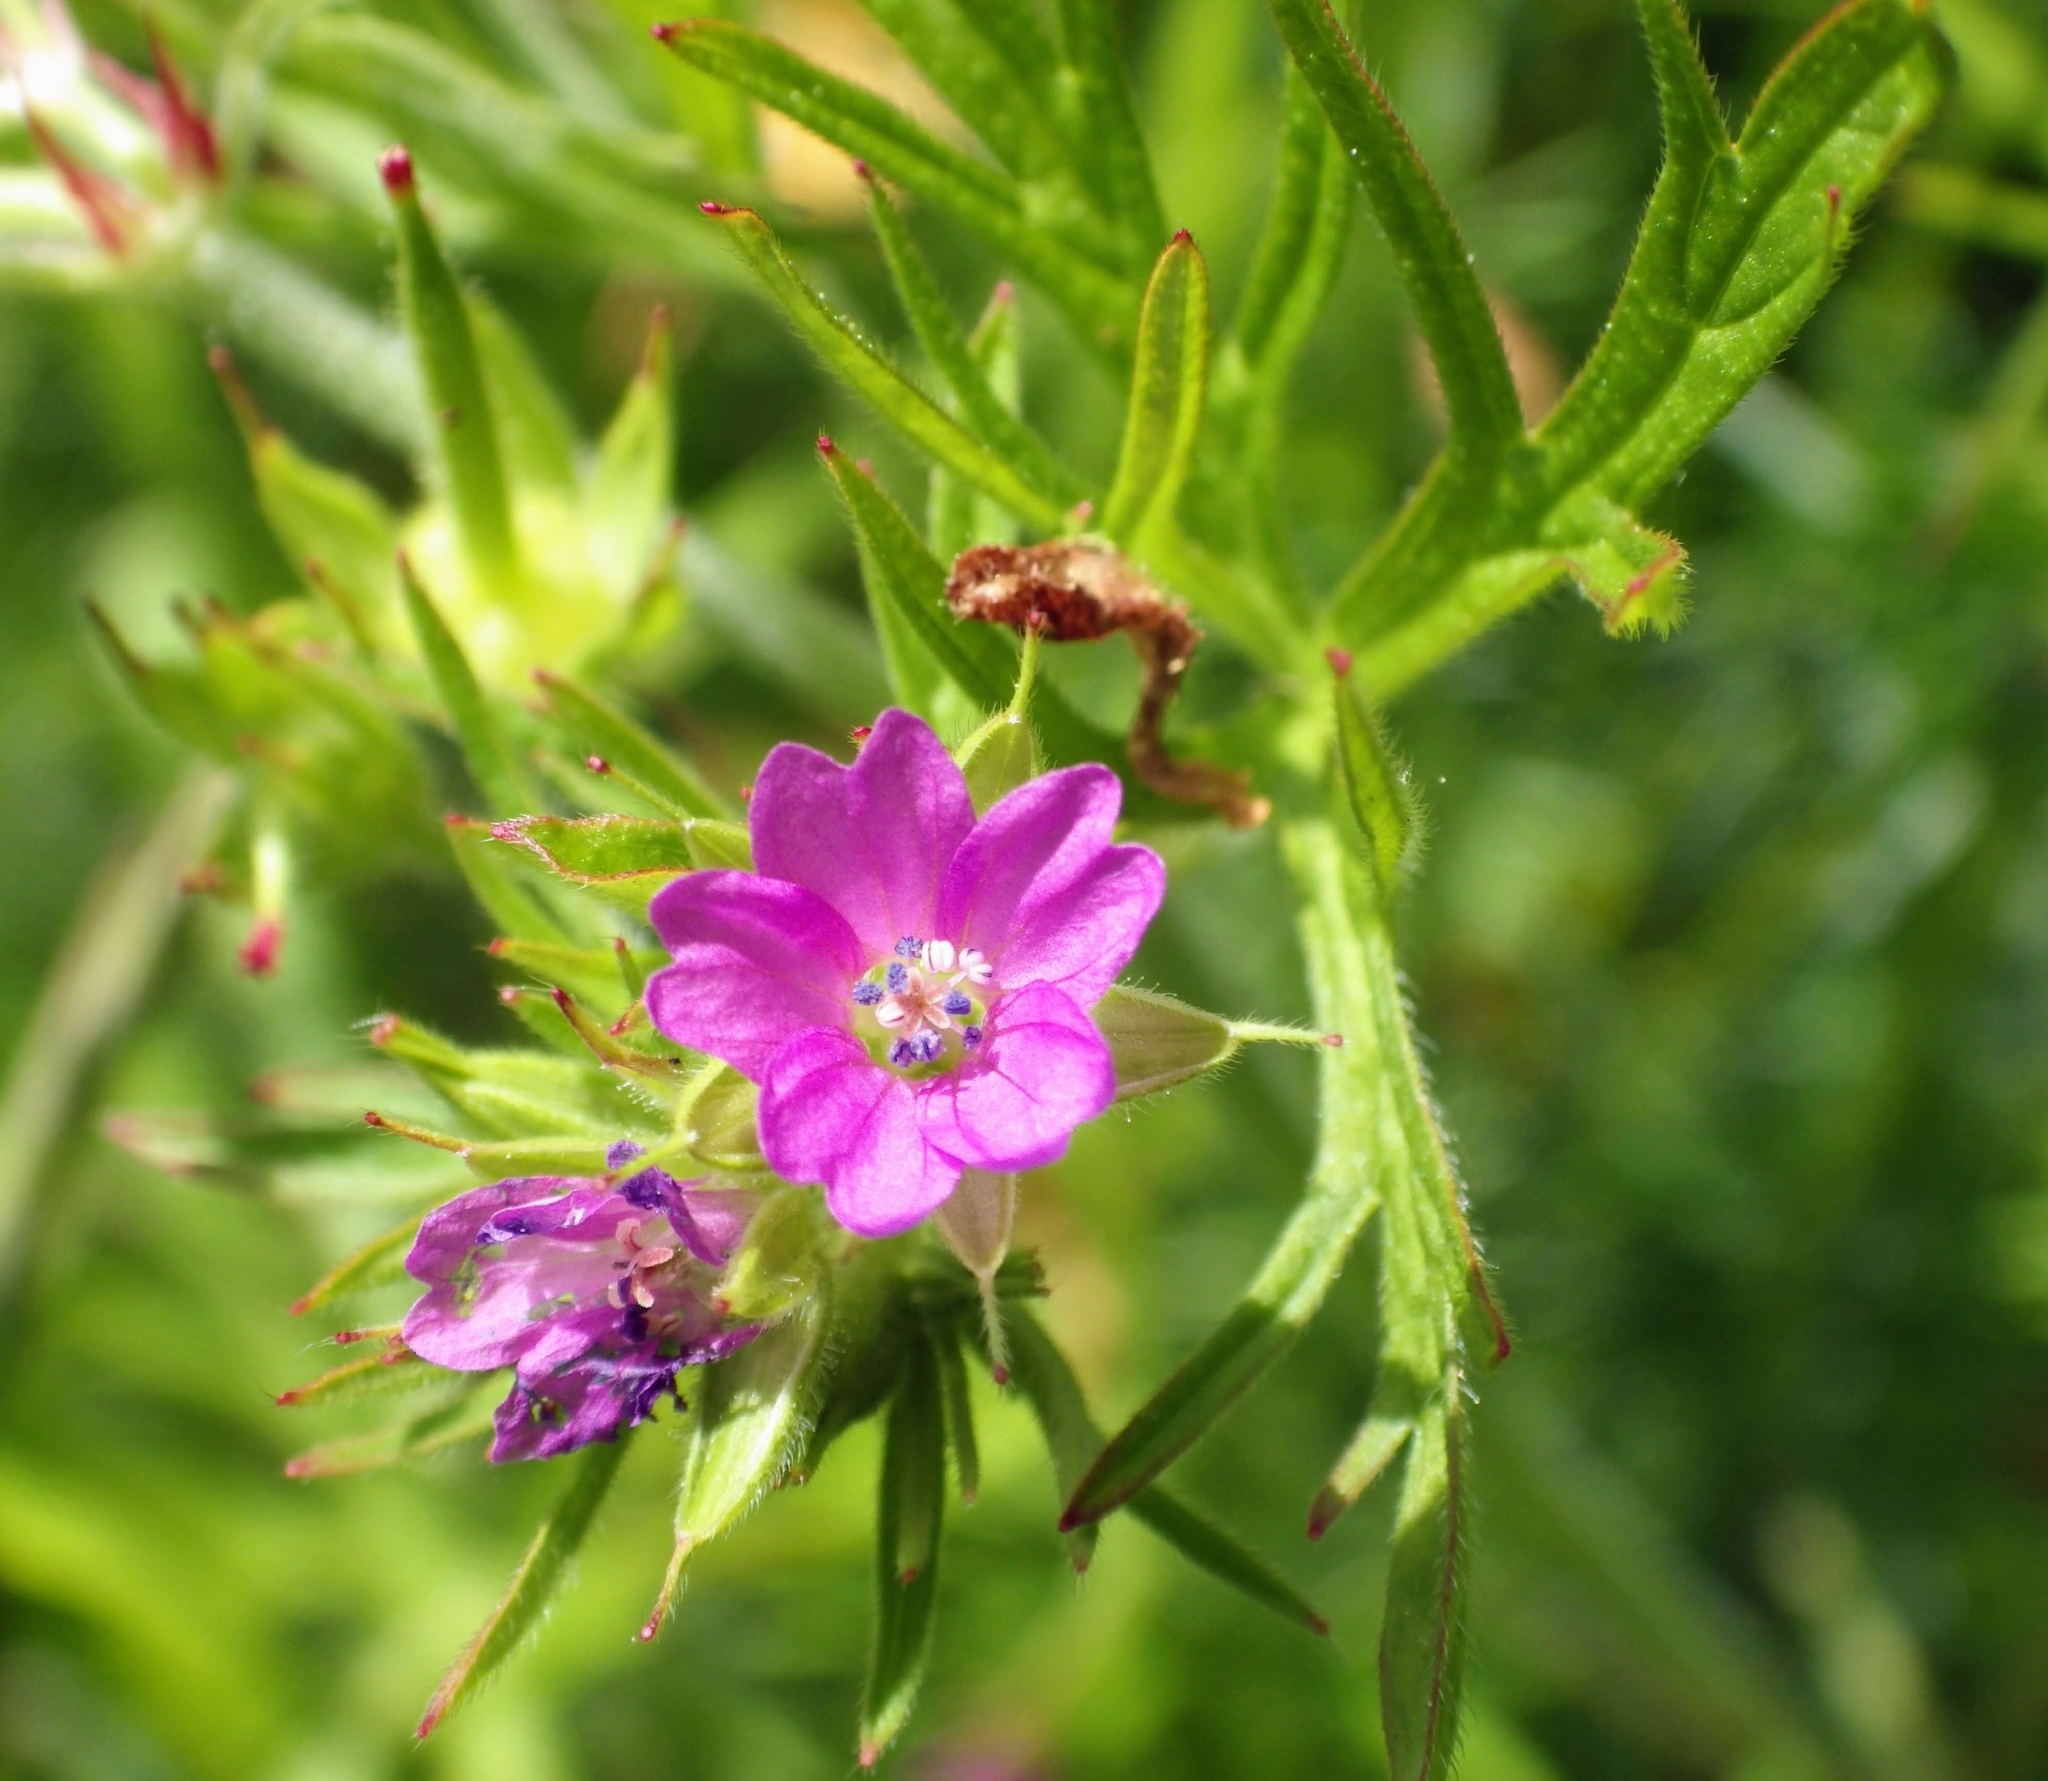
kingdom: Plantae
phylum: Tracheophyta
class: Magnoliopsida
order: Geraniales
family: Geraniaceae
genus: Geranium
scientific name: Geranium dissectum
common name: Cut-leaved crane's-bill
